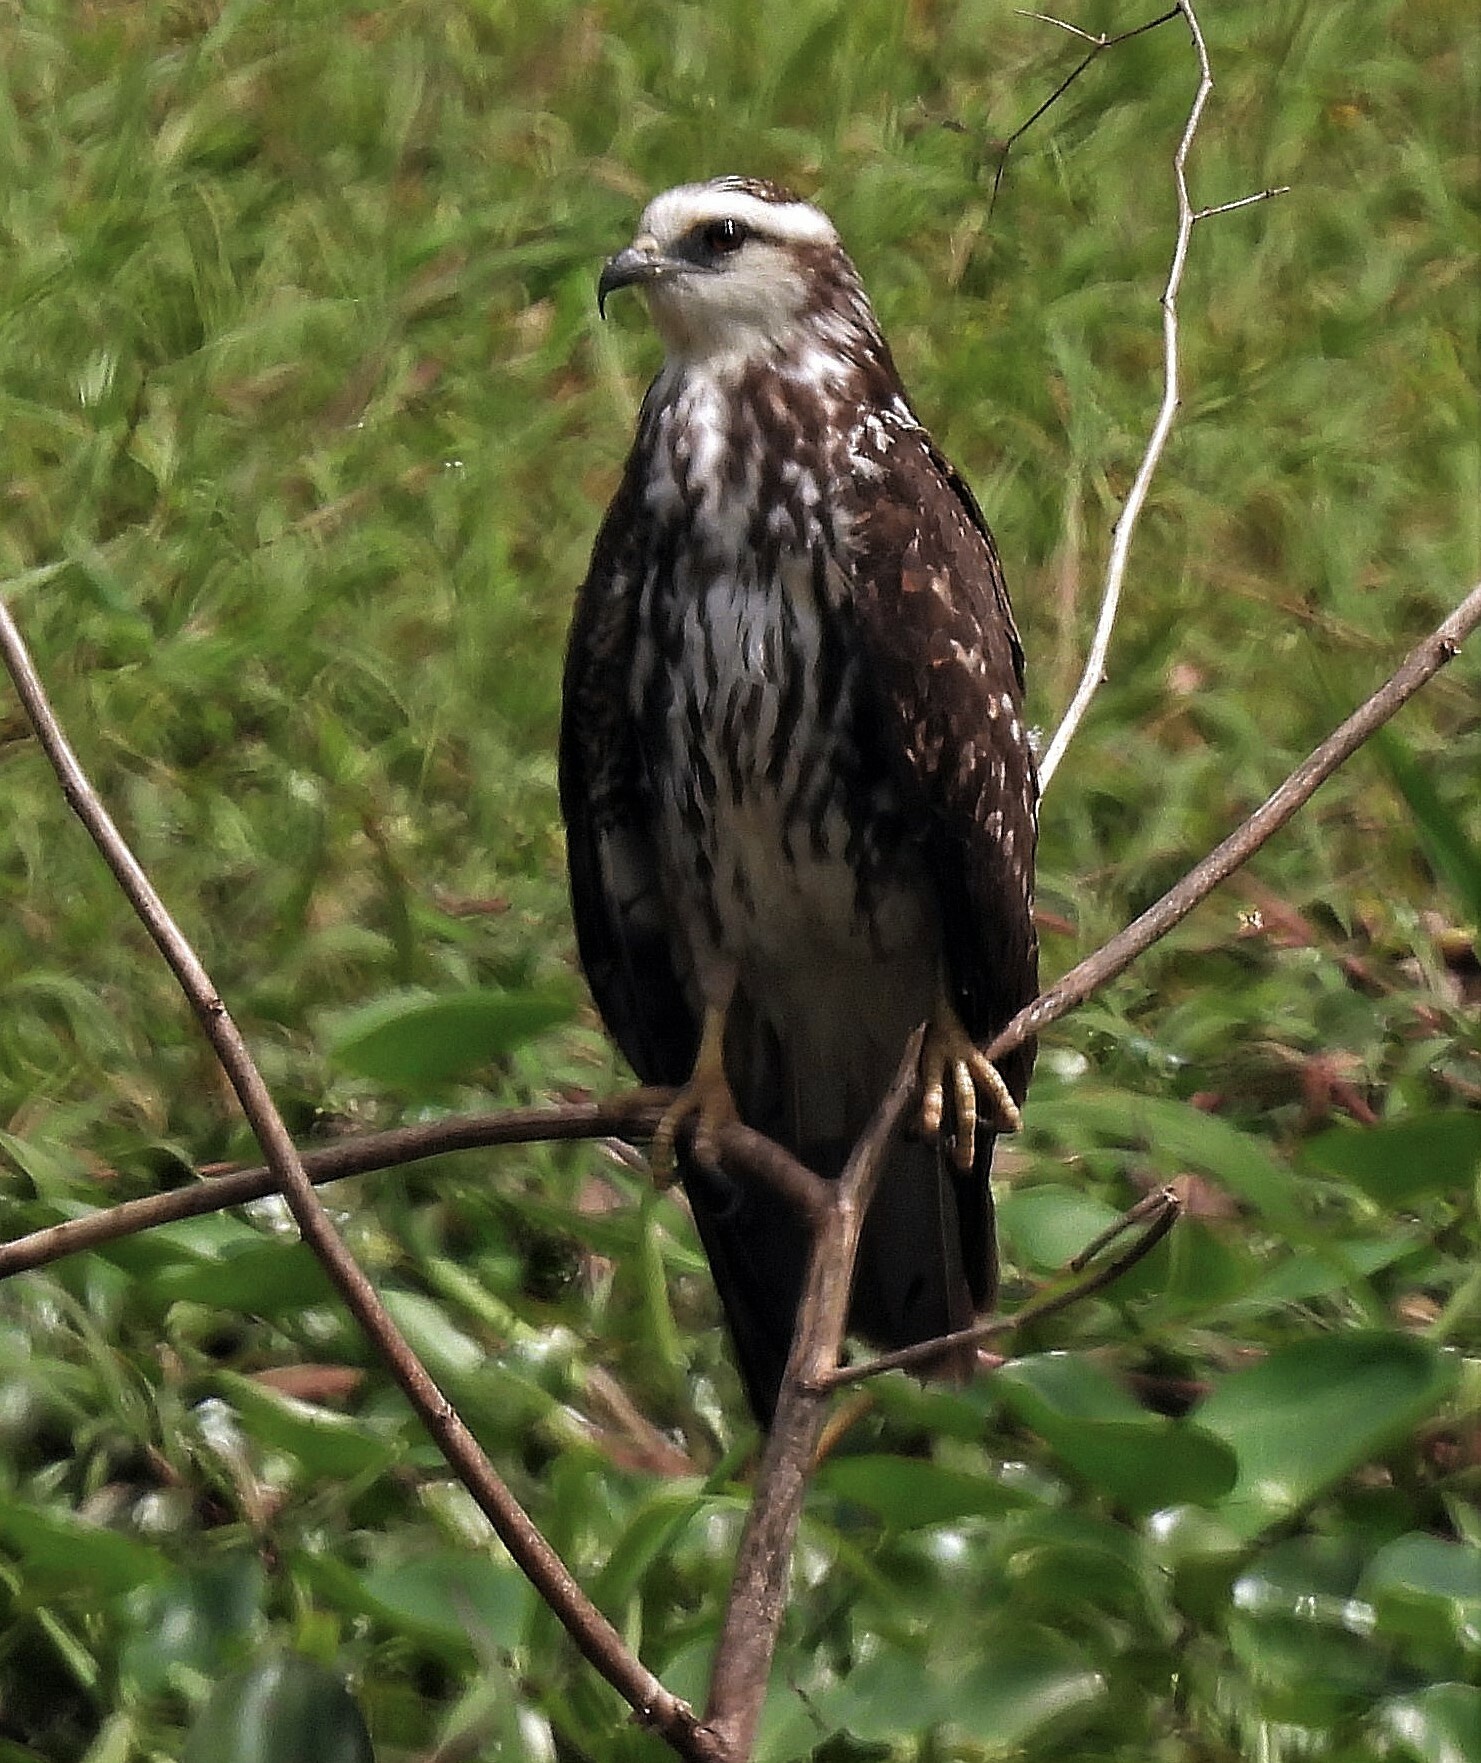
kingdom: Animalia
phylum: Chordata
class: Aves
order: Accipitriformes
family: Accipitridae
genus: Rostrhamus
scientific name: Rostrhamus sociabilis
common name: Snail kite
